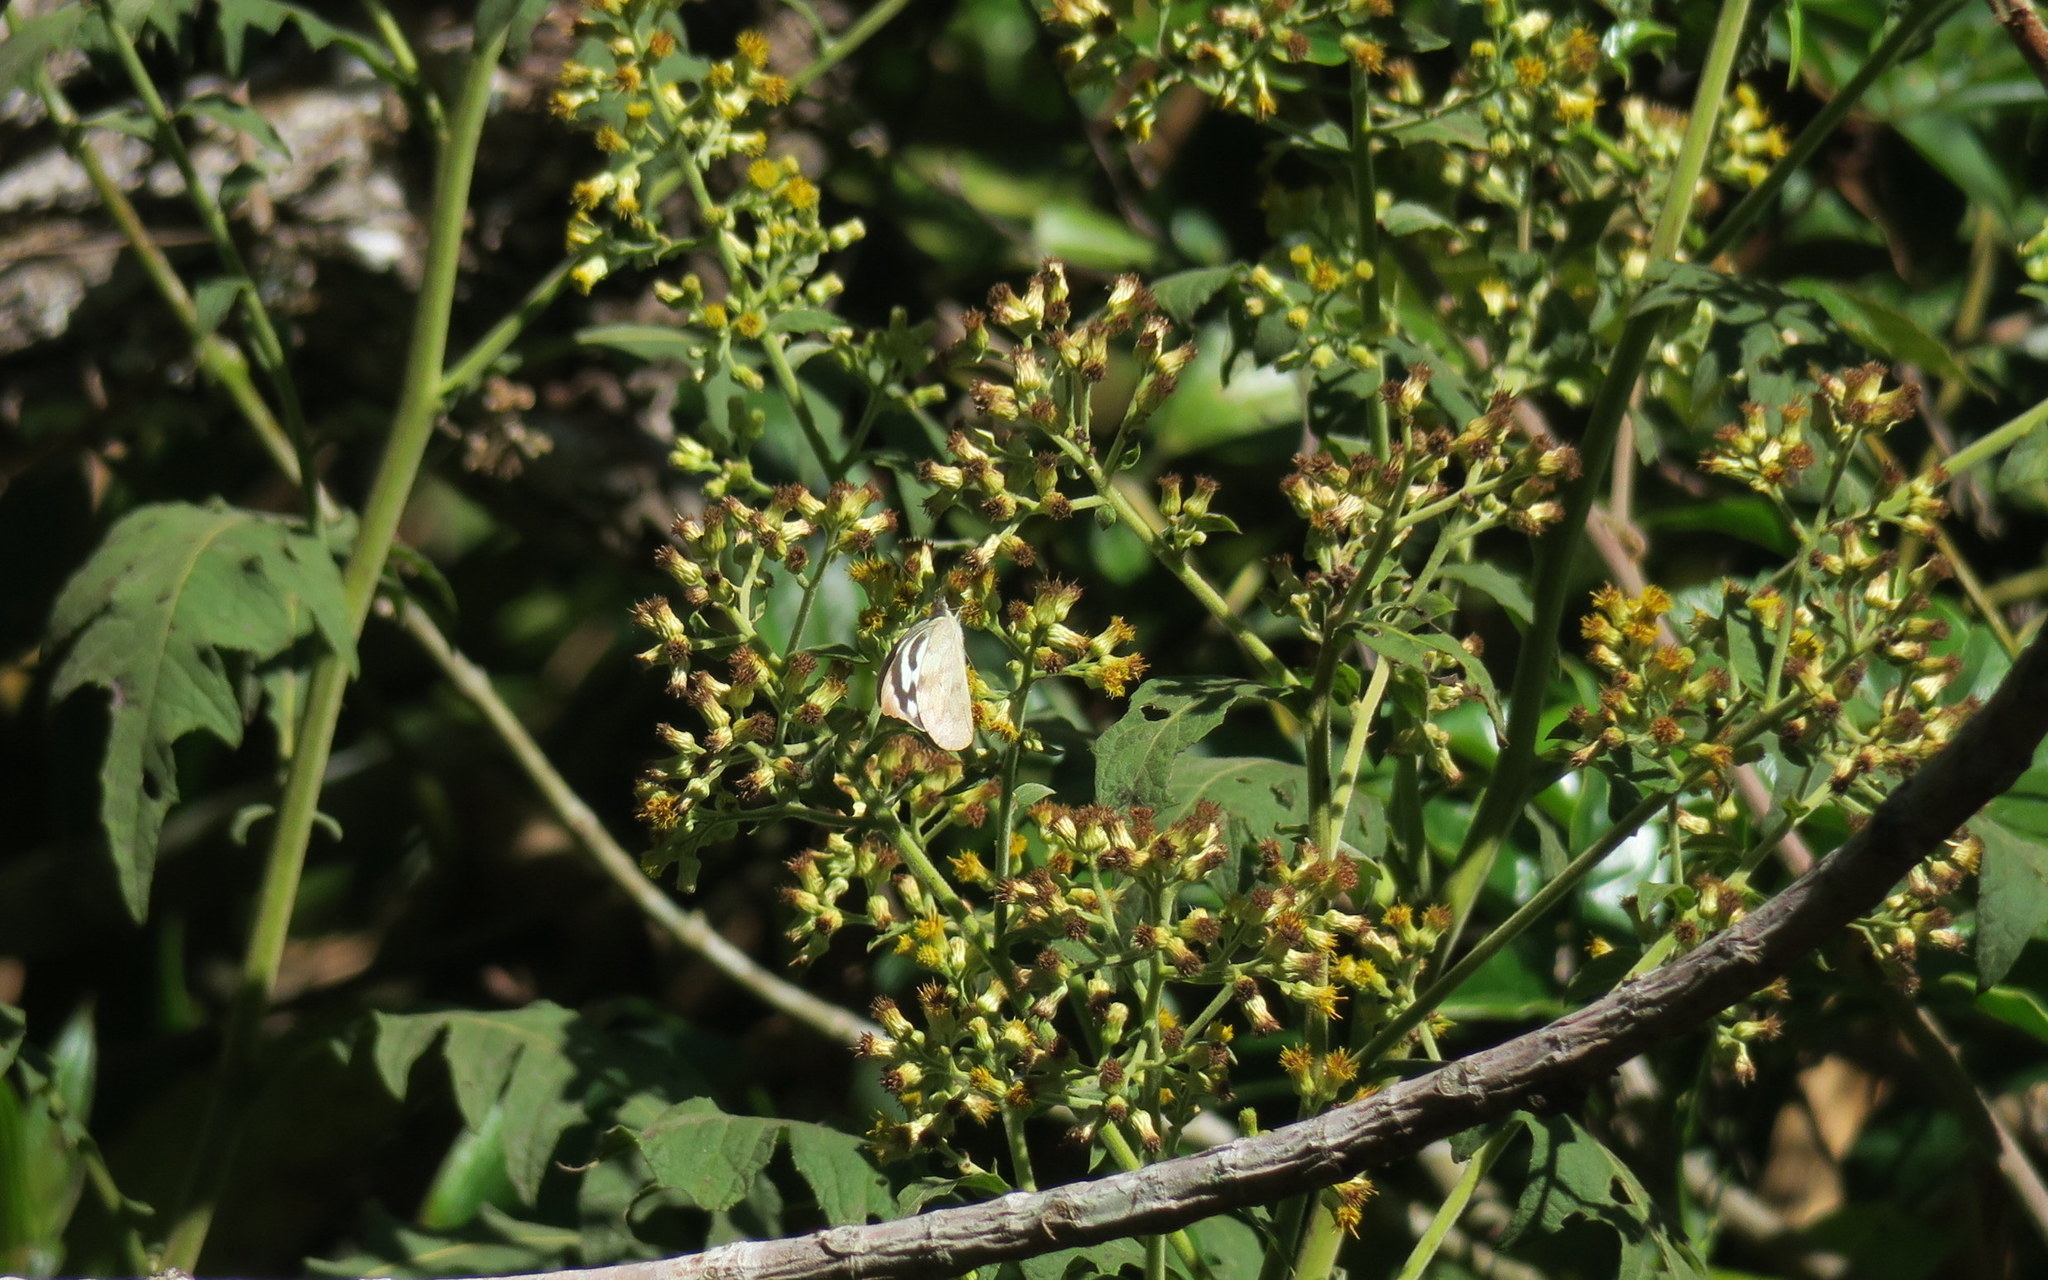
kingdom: Animalia
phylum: Arthropoda
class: Insecta
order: Lepidoptera
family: Pieridae
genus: Appias
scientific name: Appias pandione
